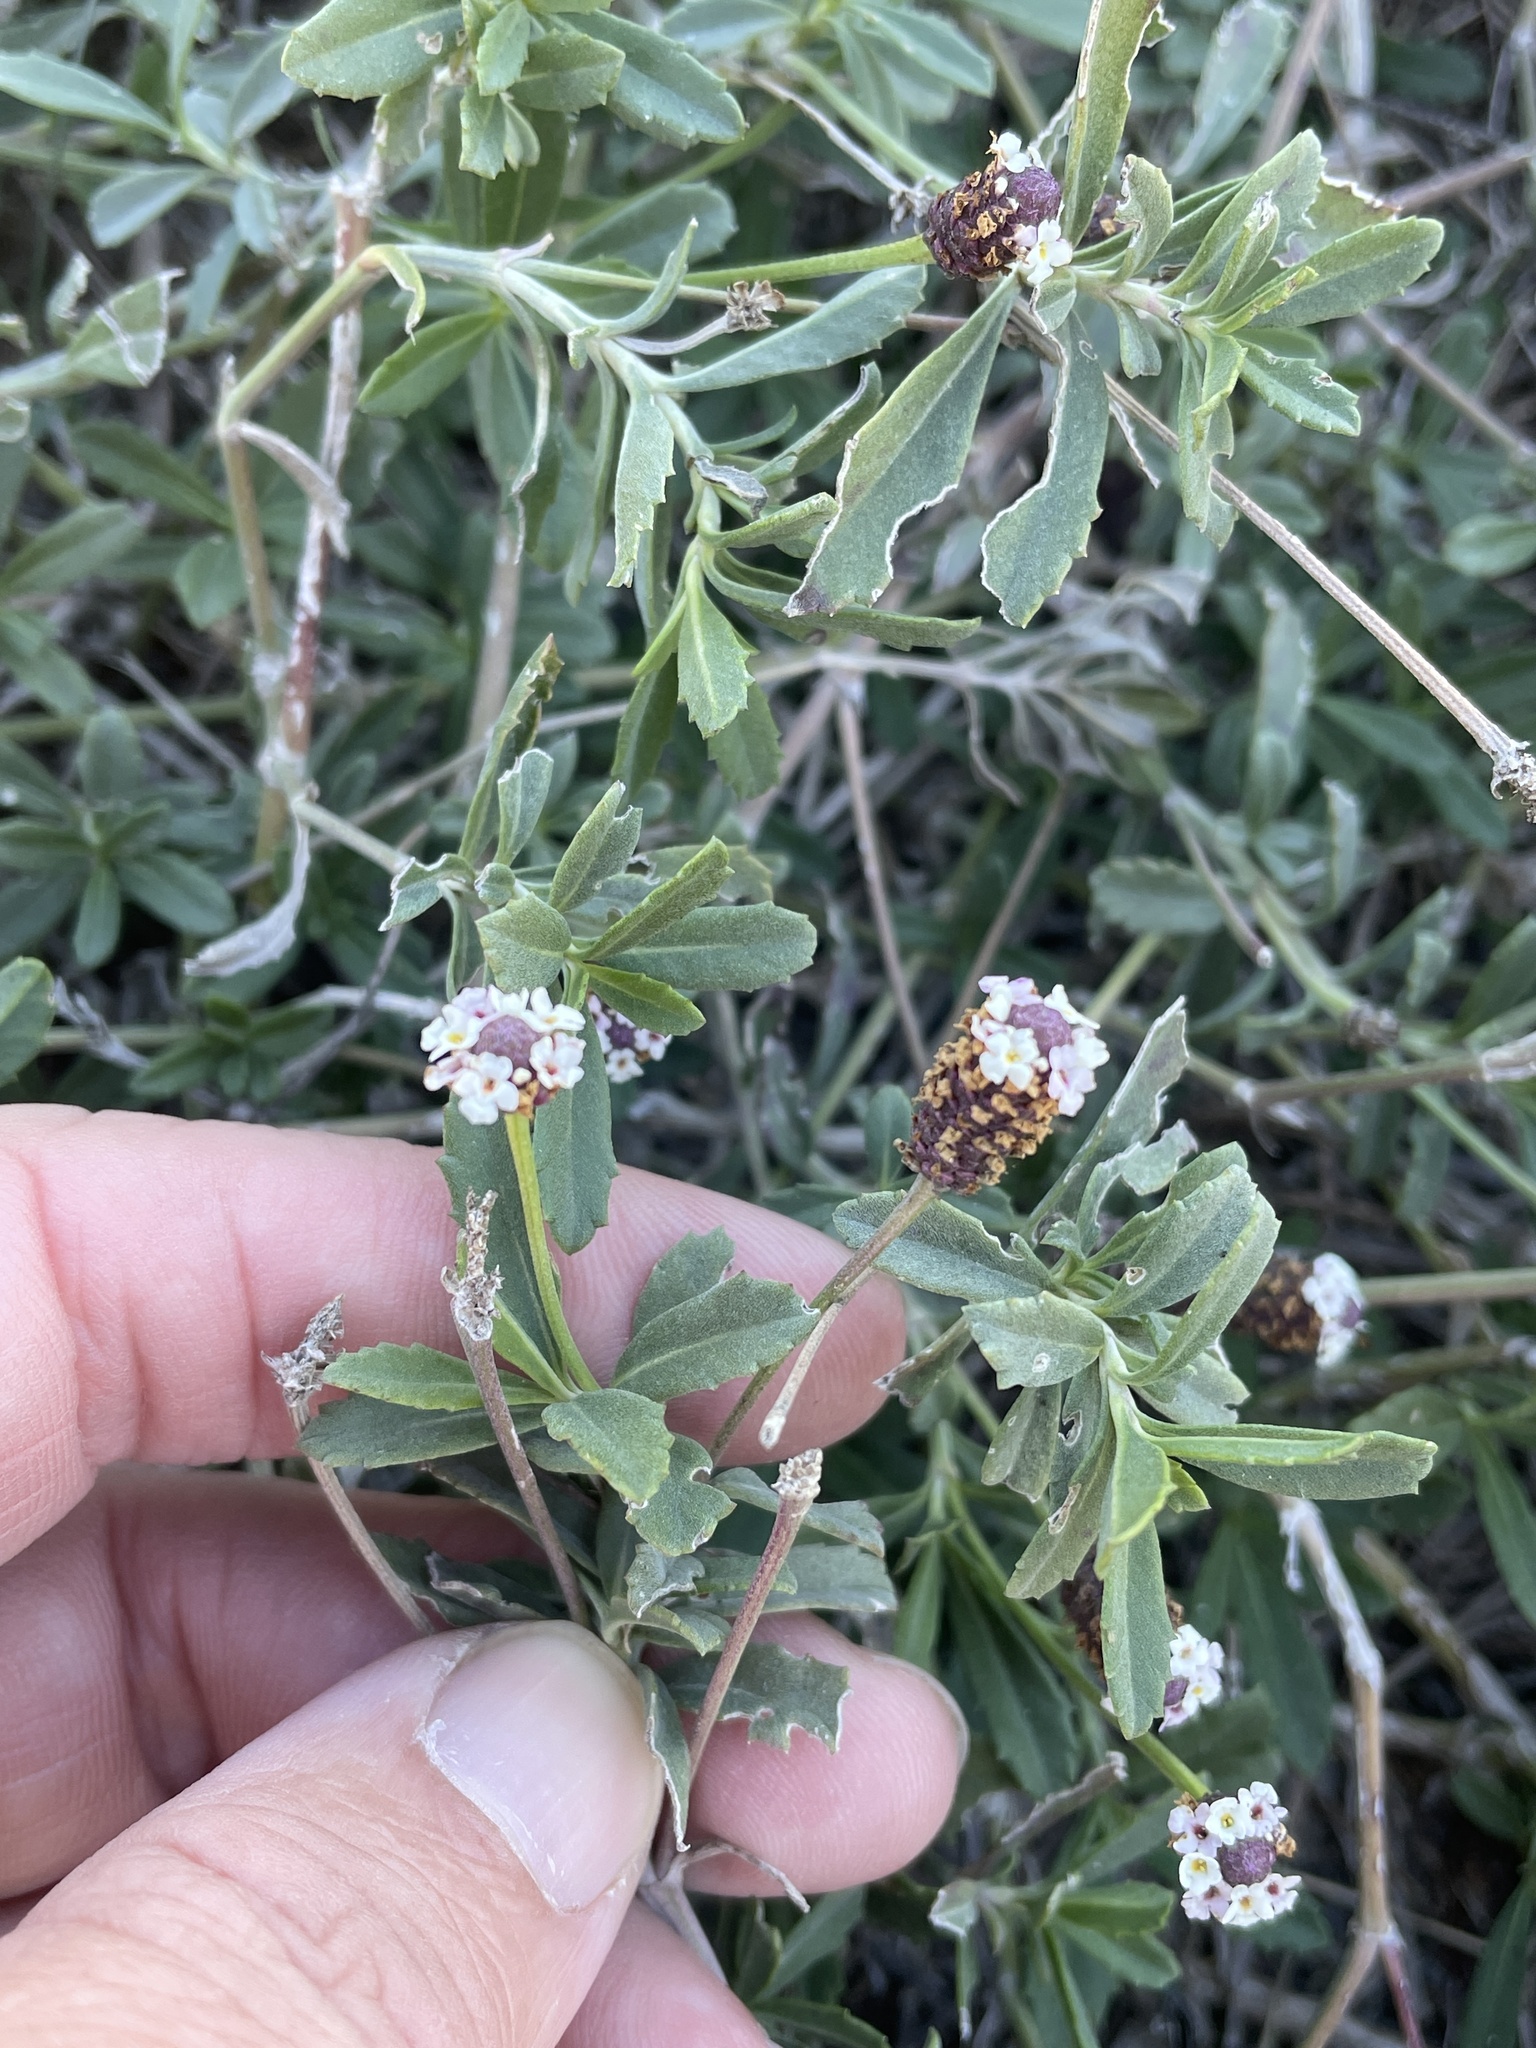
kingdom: Plantae
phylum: Tracheophyta
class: Magnoliopsida
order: Lamiales
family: Verbenaceae
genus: Phyla
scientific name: Phyla nodiflora
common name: Frogfruit
